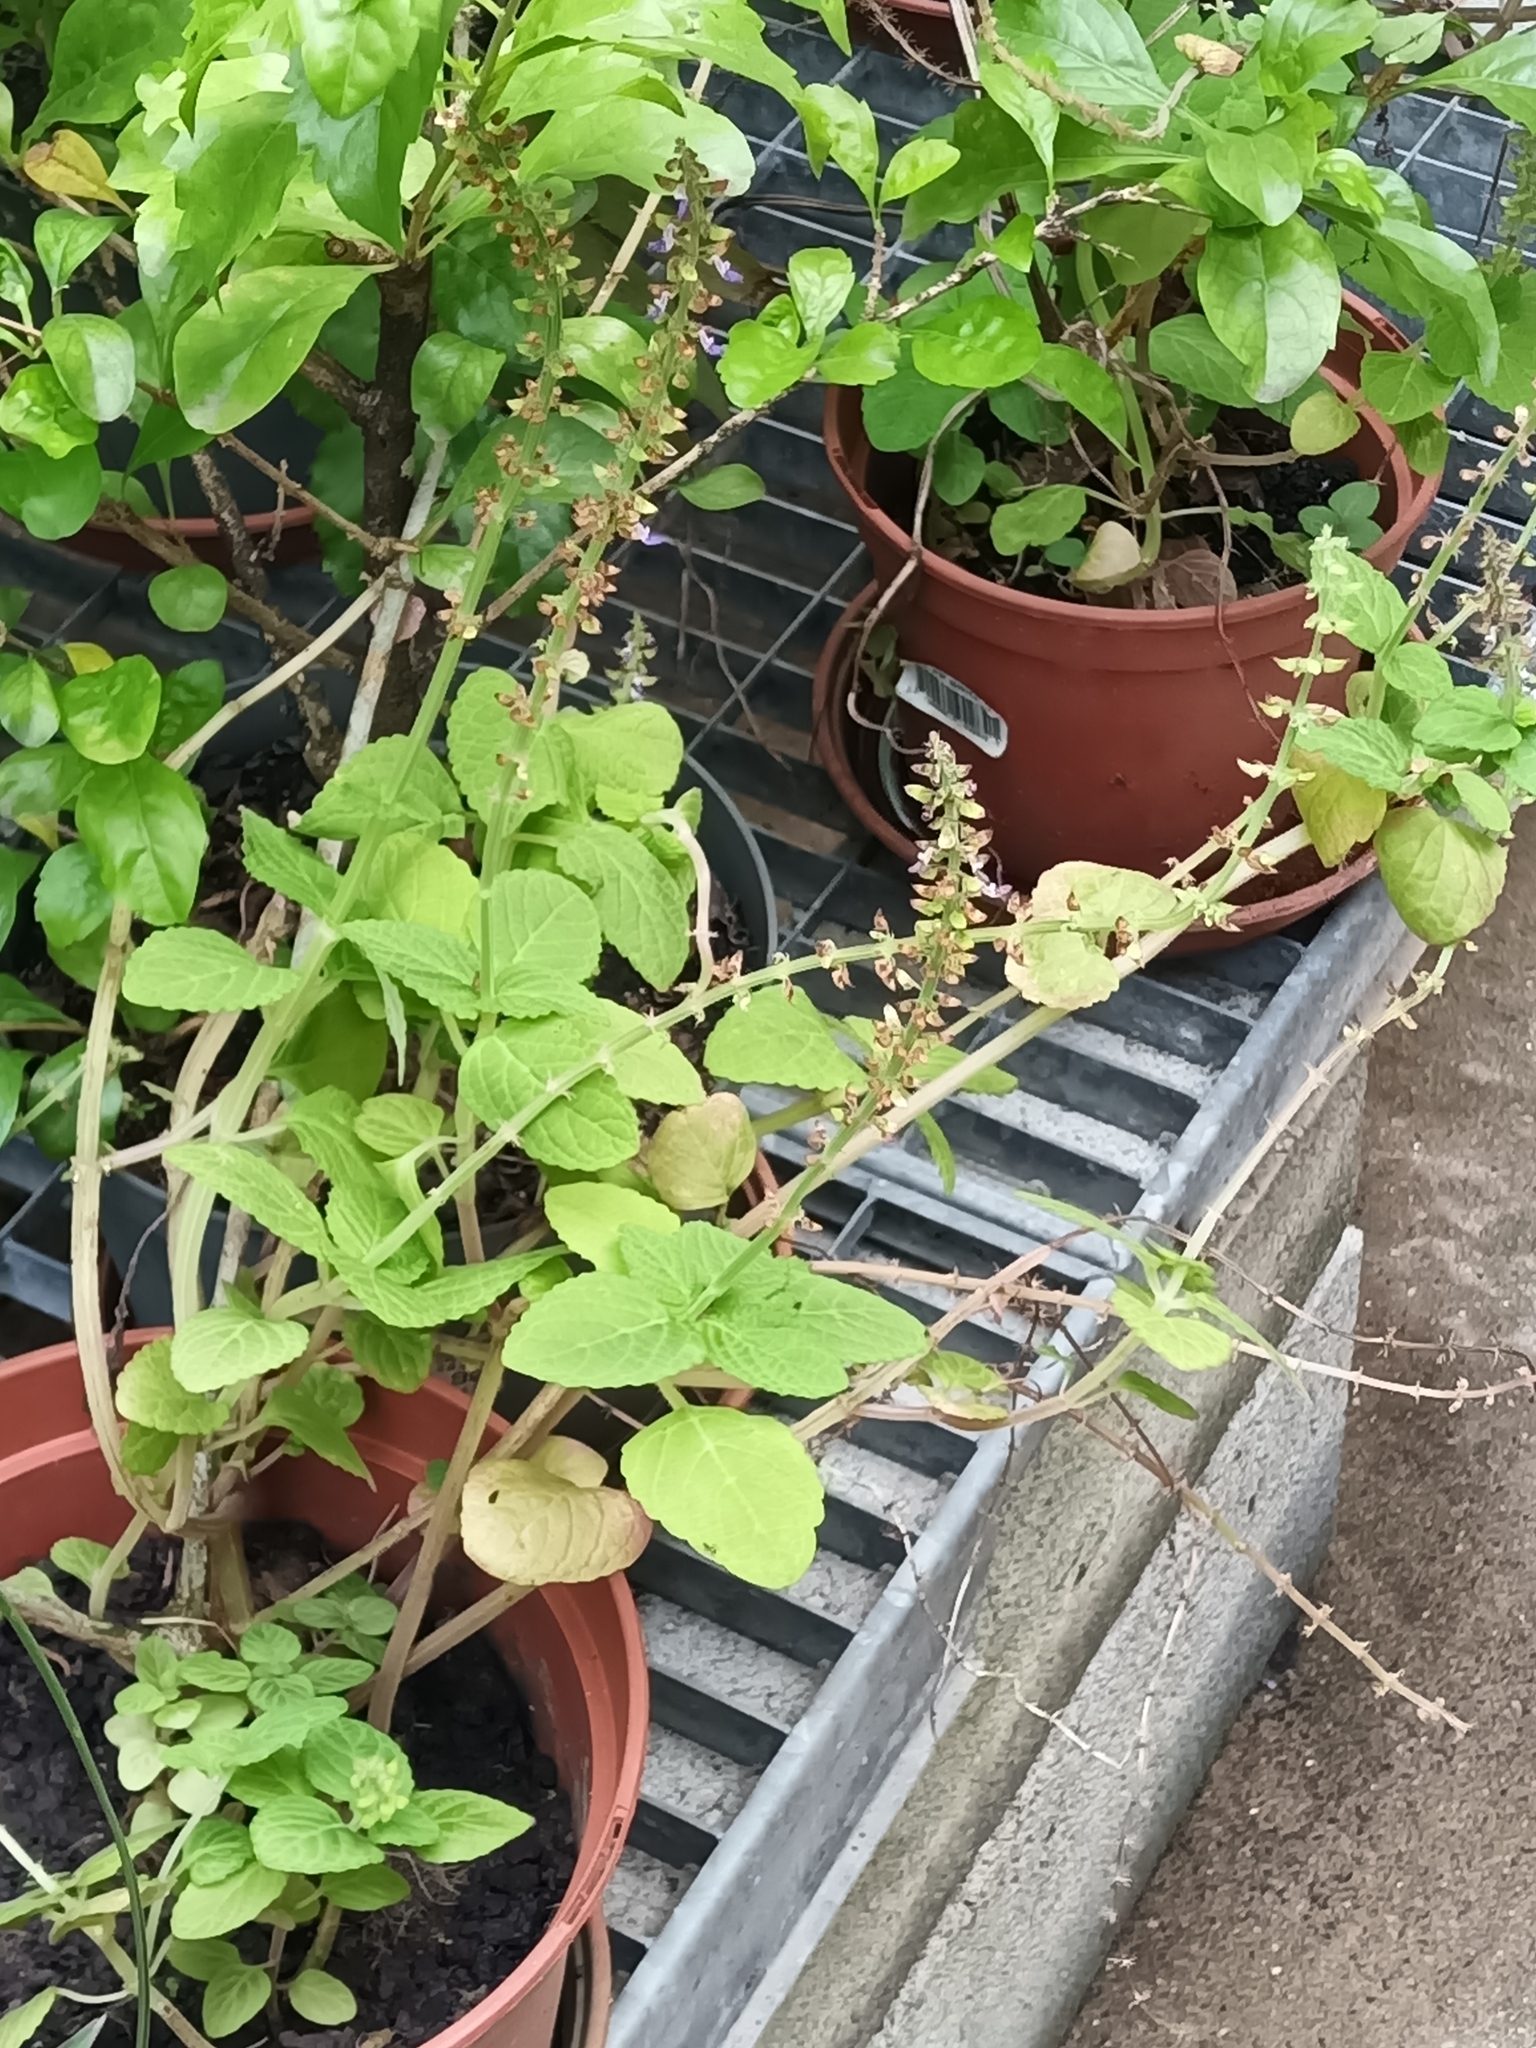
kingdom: Plantae
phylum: Tracheophyta
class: Magnoliopsida
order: Lamiales
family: Lamiaceae
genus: Coleus
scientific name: Coleus monostachyus
